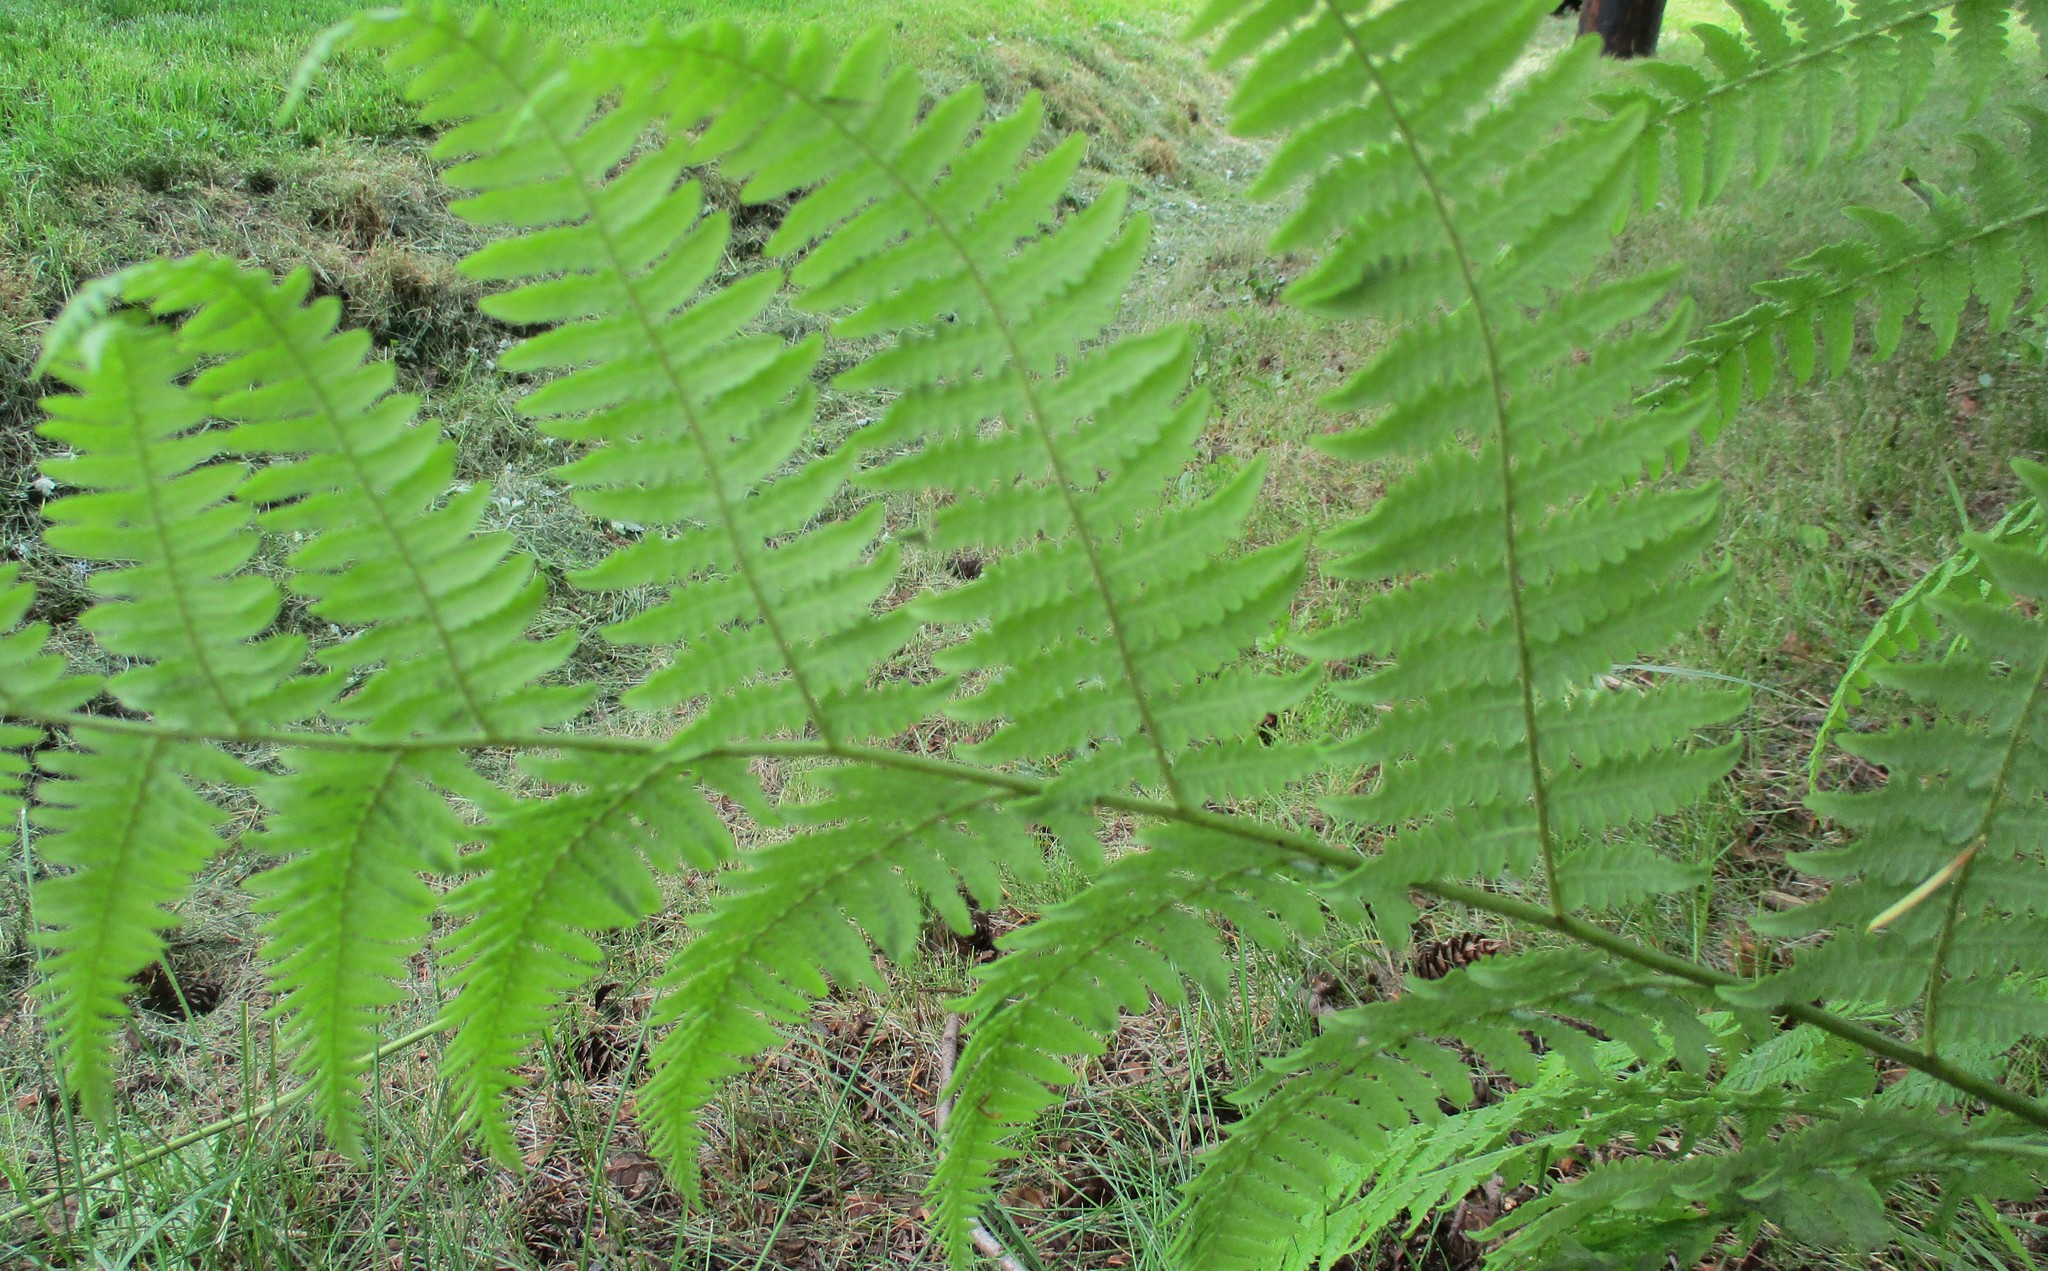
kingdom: Plantae
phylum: Tracheophyta
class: Polypodiopsida
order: Polypodiales
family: Dennstaedtiaceae
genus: Pteridium
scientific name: Pteridium aquilinum
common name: Bracken
